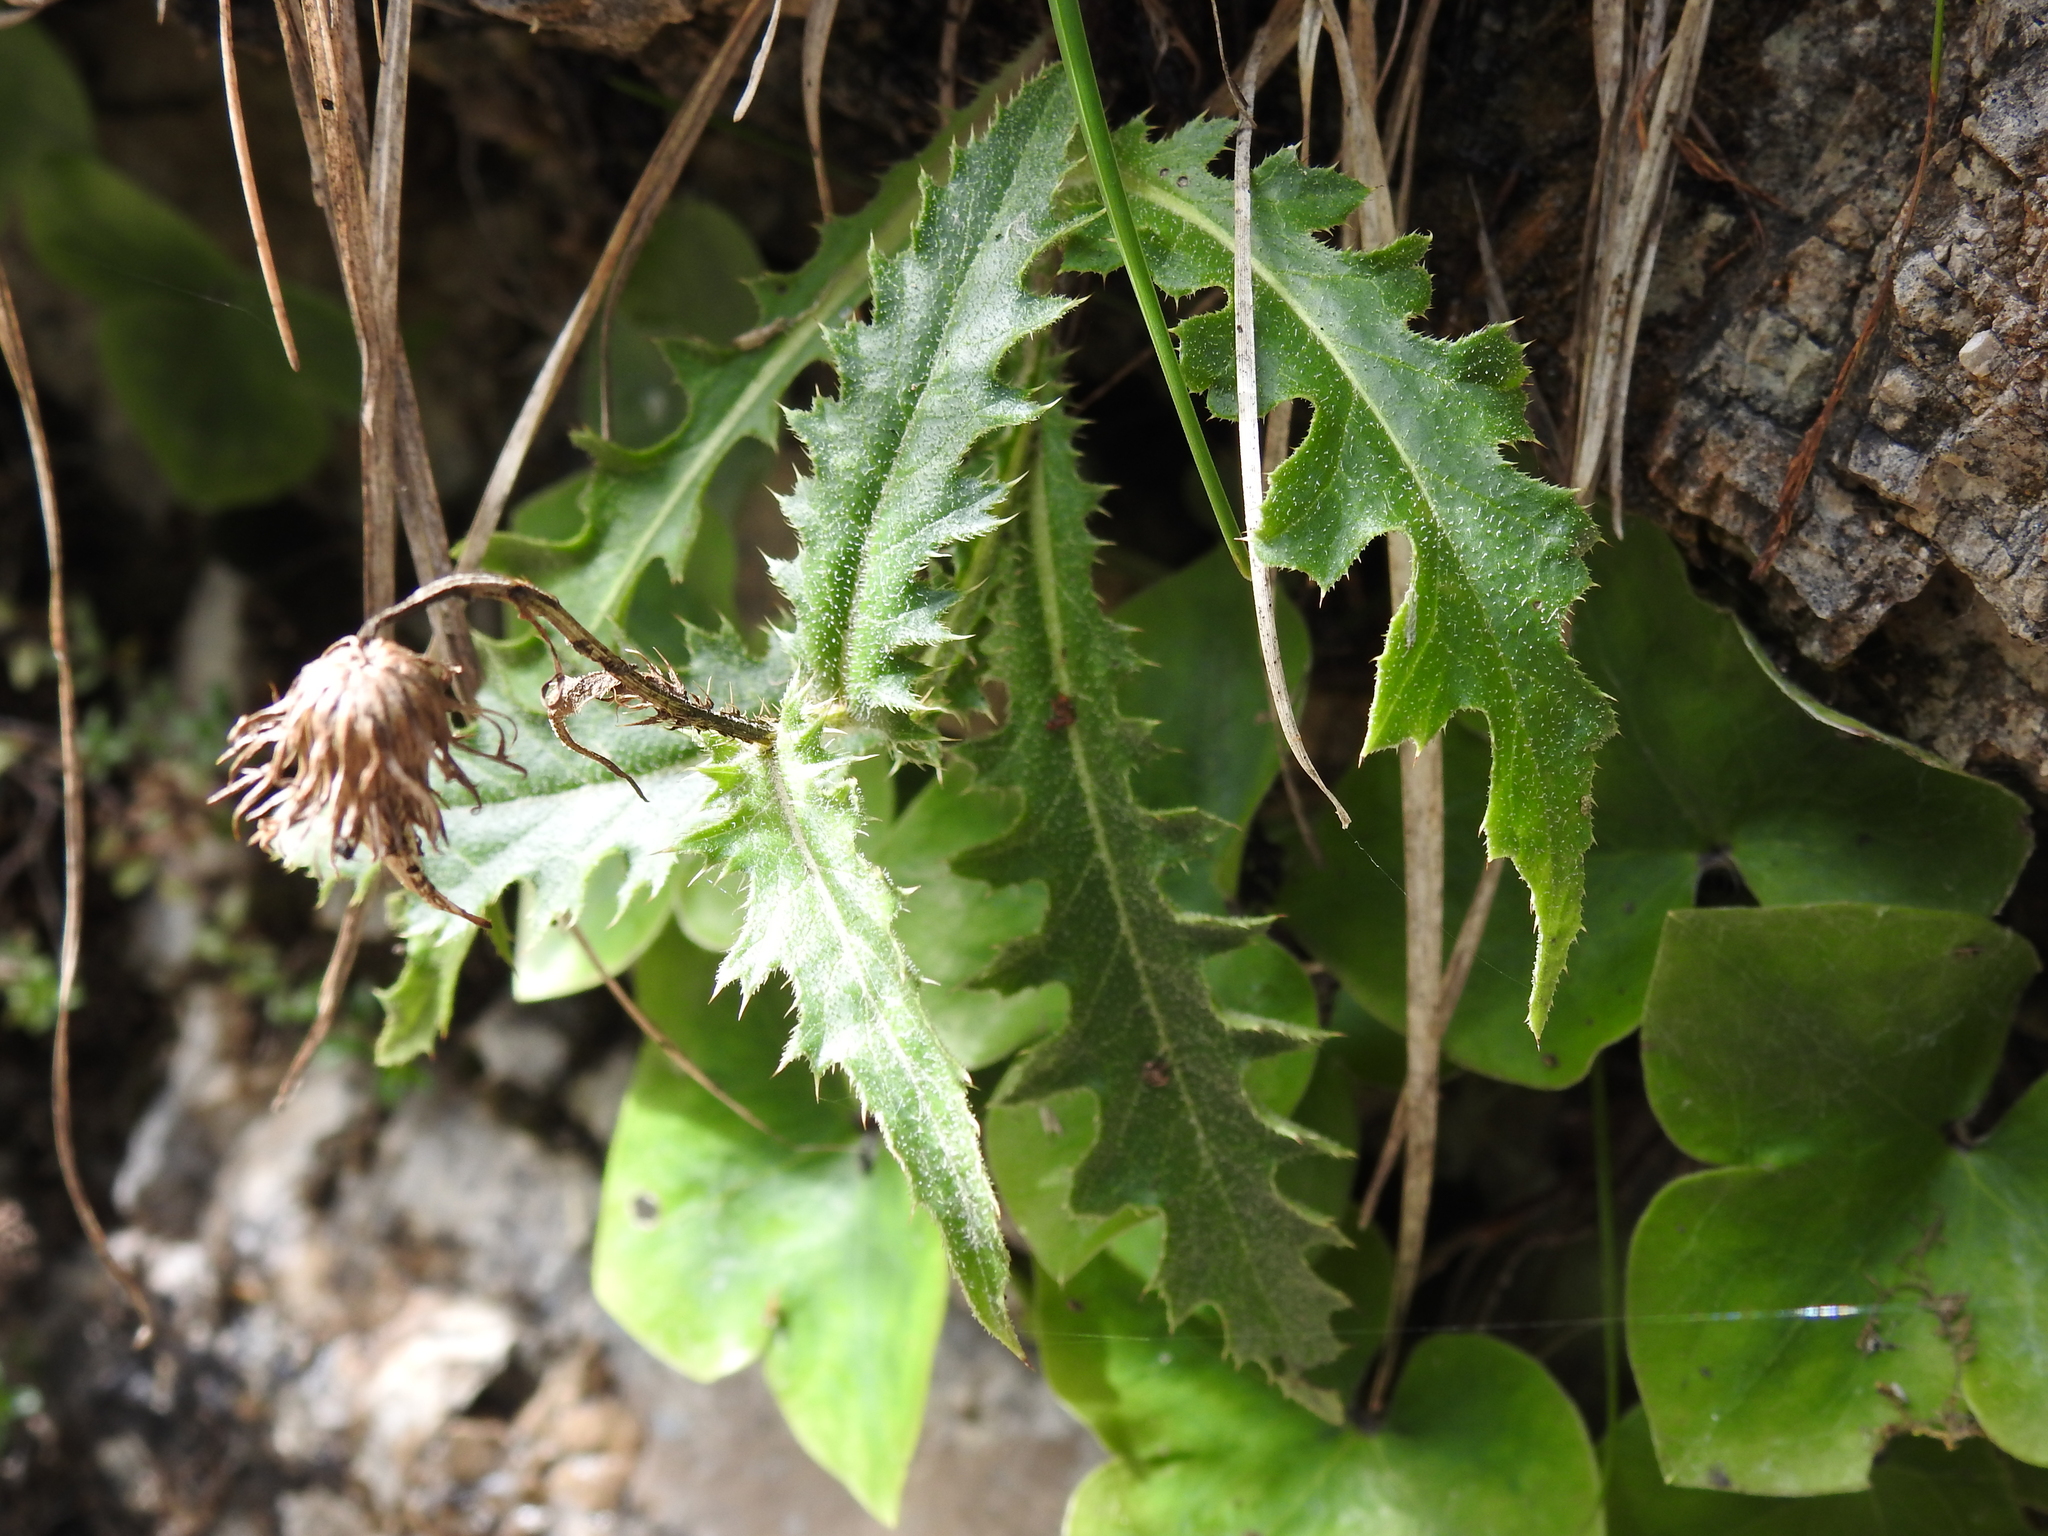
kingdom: Plantae
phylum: Tracheophyta
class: Magnoliopsida
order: Asterales
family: Asteraceae
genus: Carduus
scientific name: Carduus defloratus
